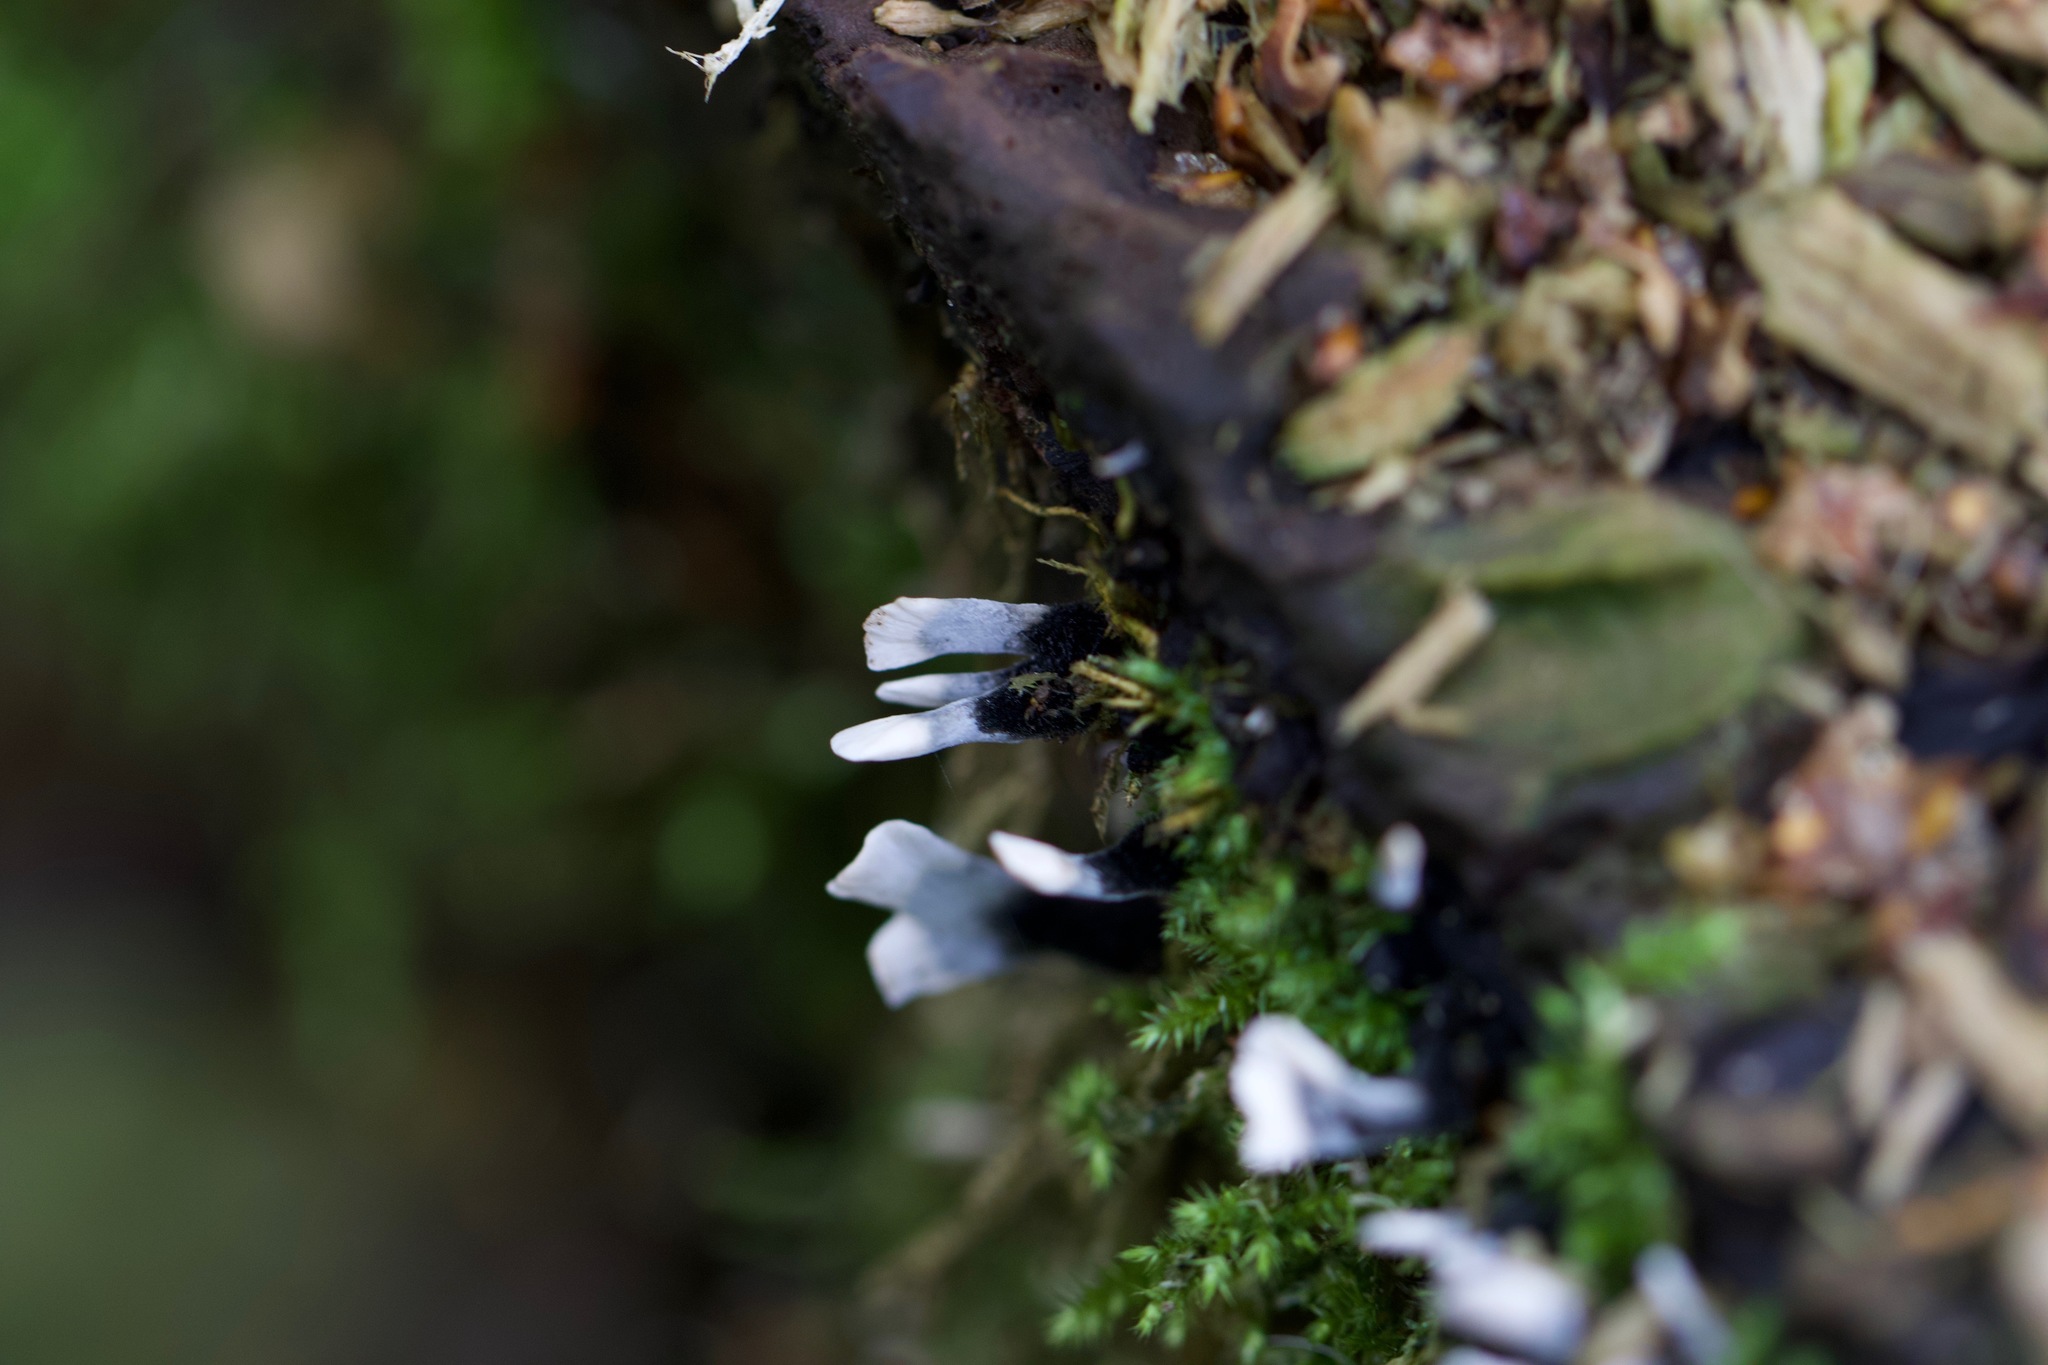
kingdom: Fungi
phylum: Ascomycota
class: Sordariomycetes
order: Xylariales
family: Xylariaceae
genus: Xylaria
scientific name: Xylaria hypoxylon
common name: Candle-snuff fungus
